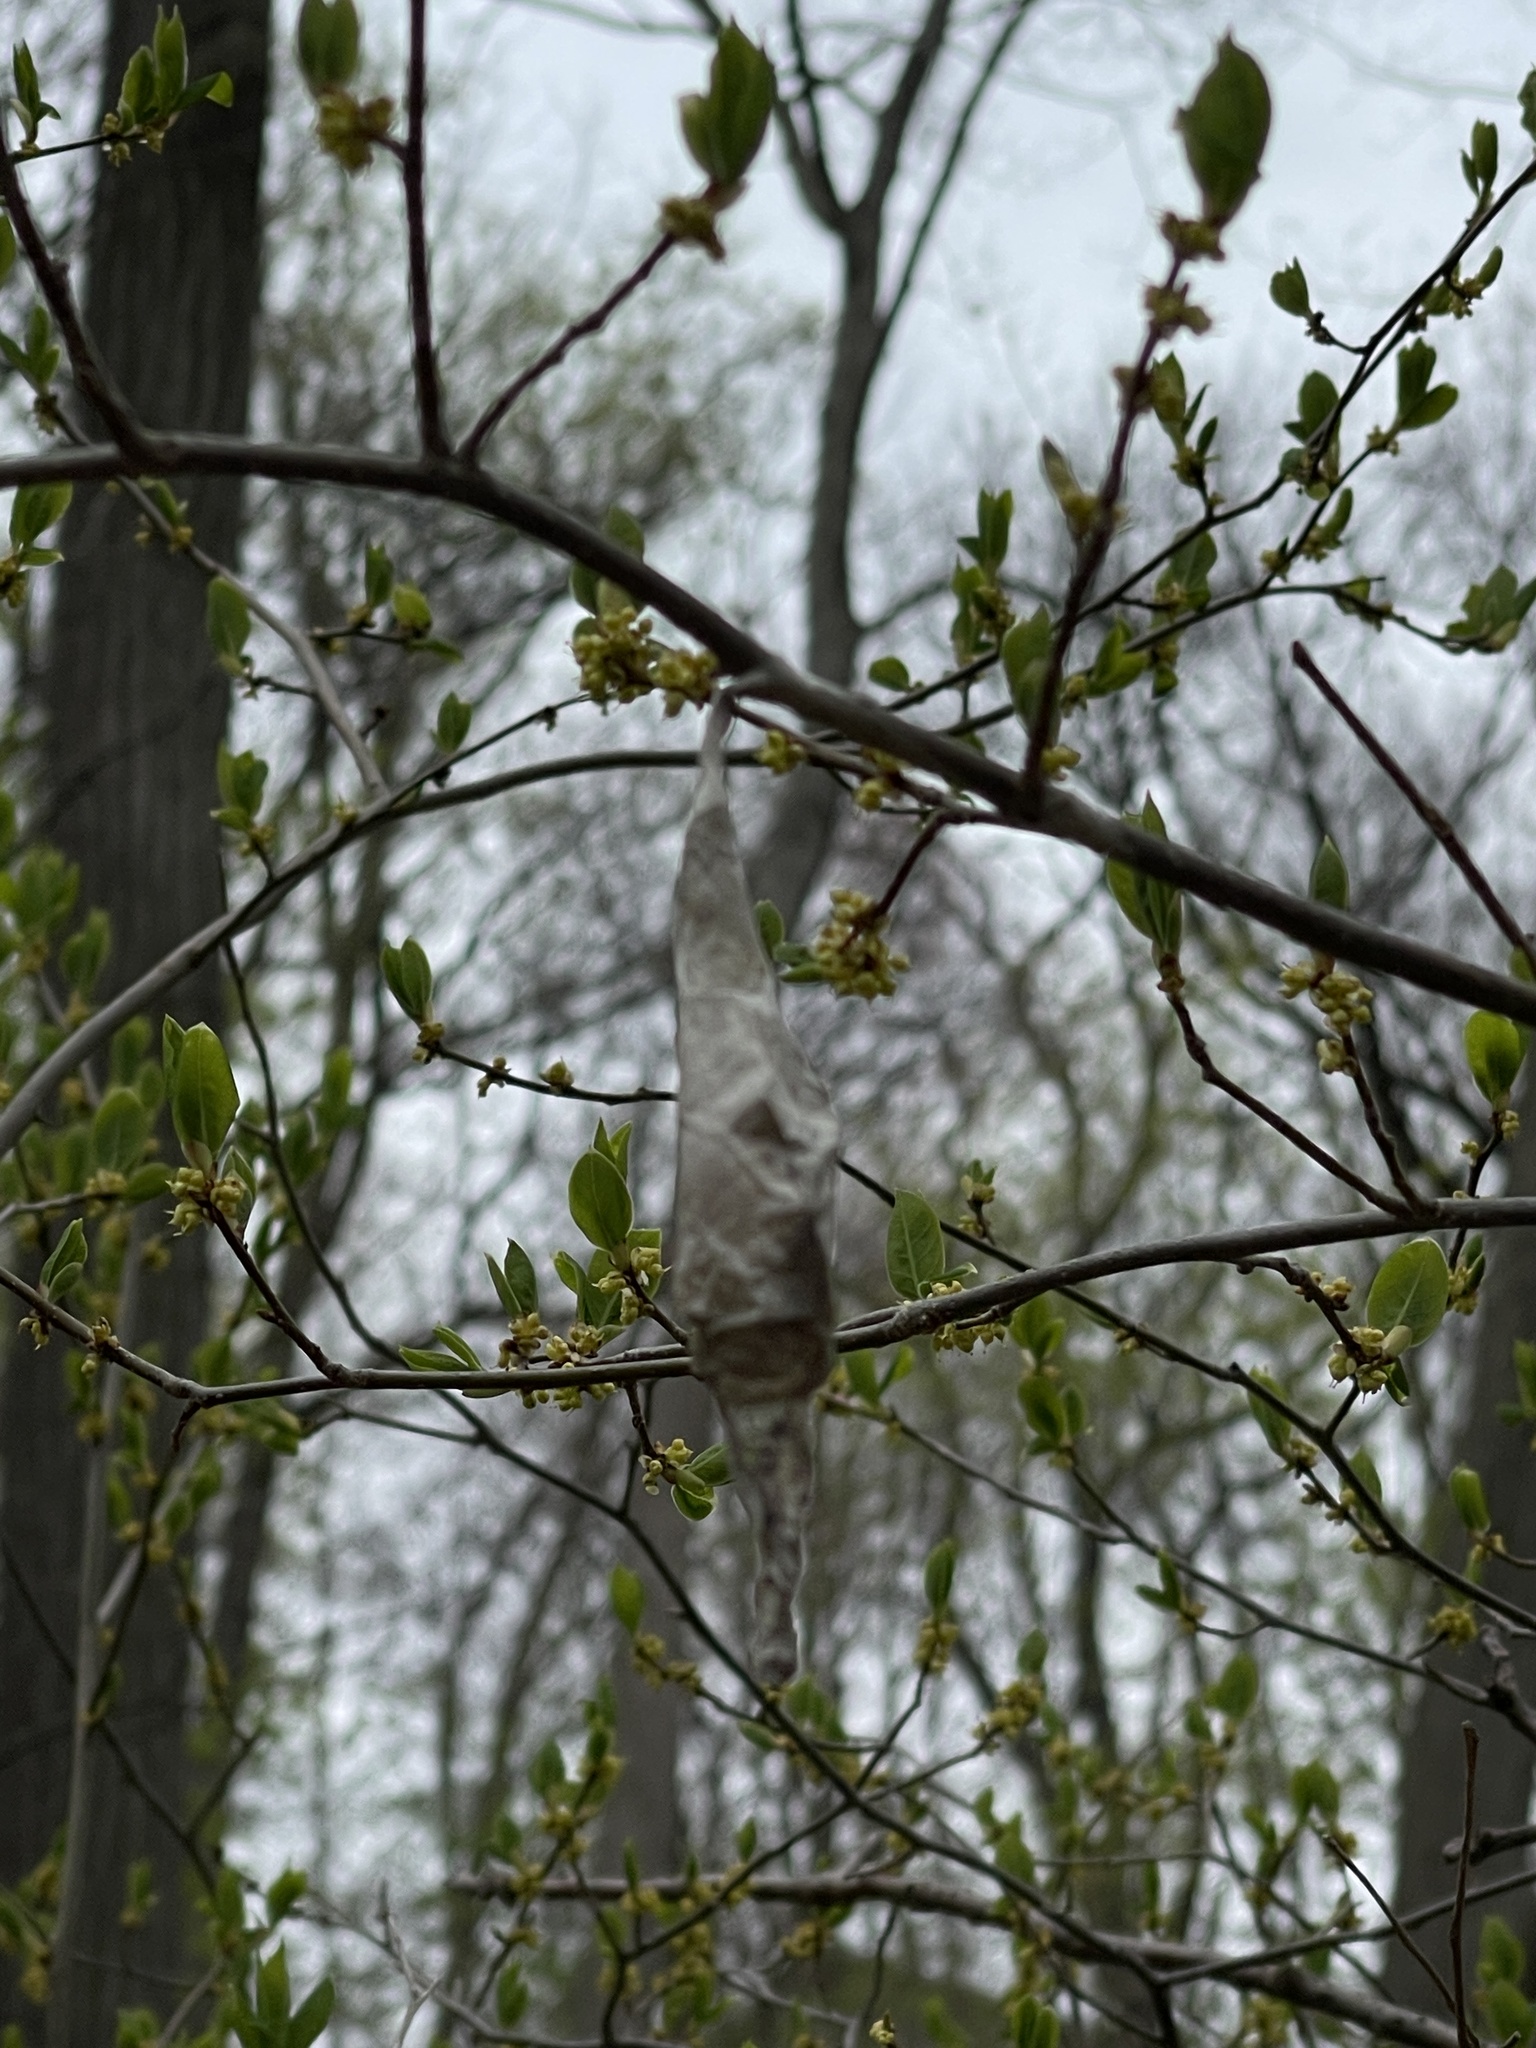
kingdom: Plantae
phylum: Tracheophyta
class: Magnoliopsida
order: Laurales
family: Lauraceae
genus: Lindera
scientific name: Lindera benzoin
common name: Spicebush
